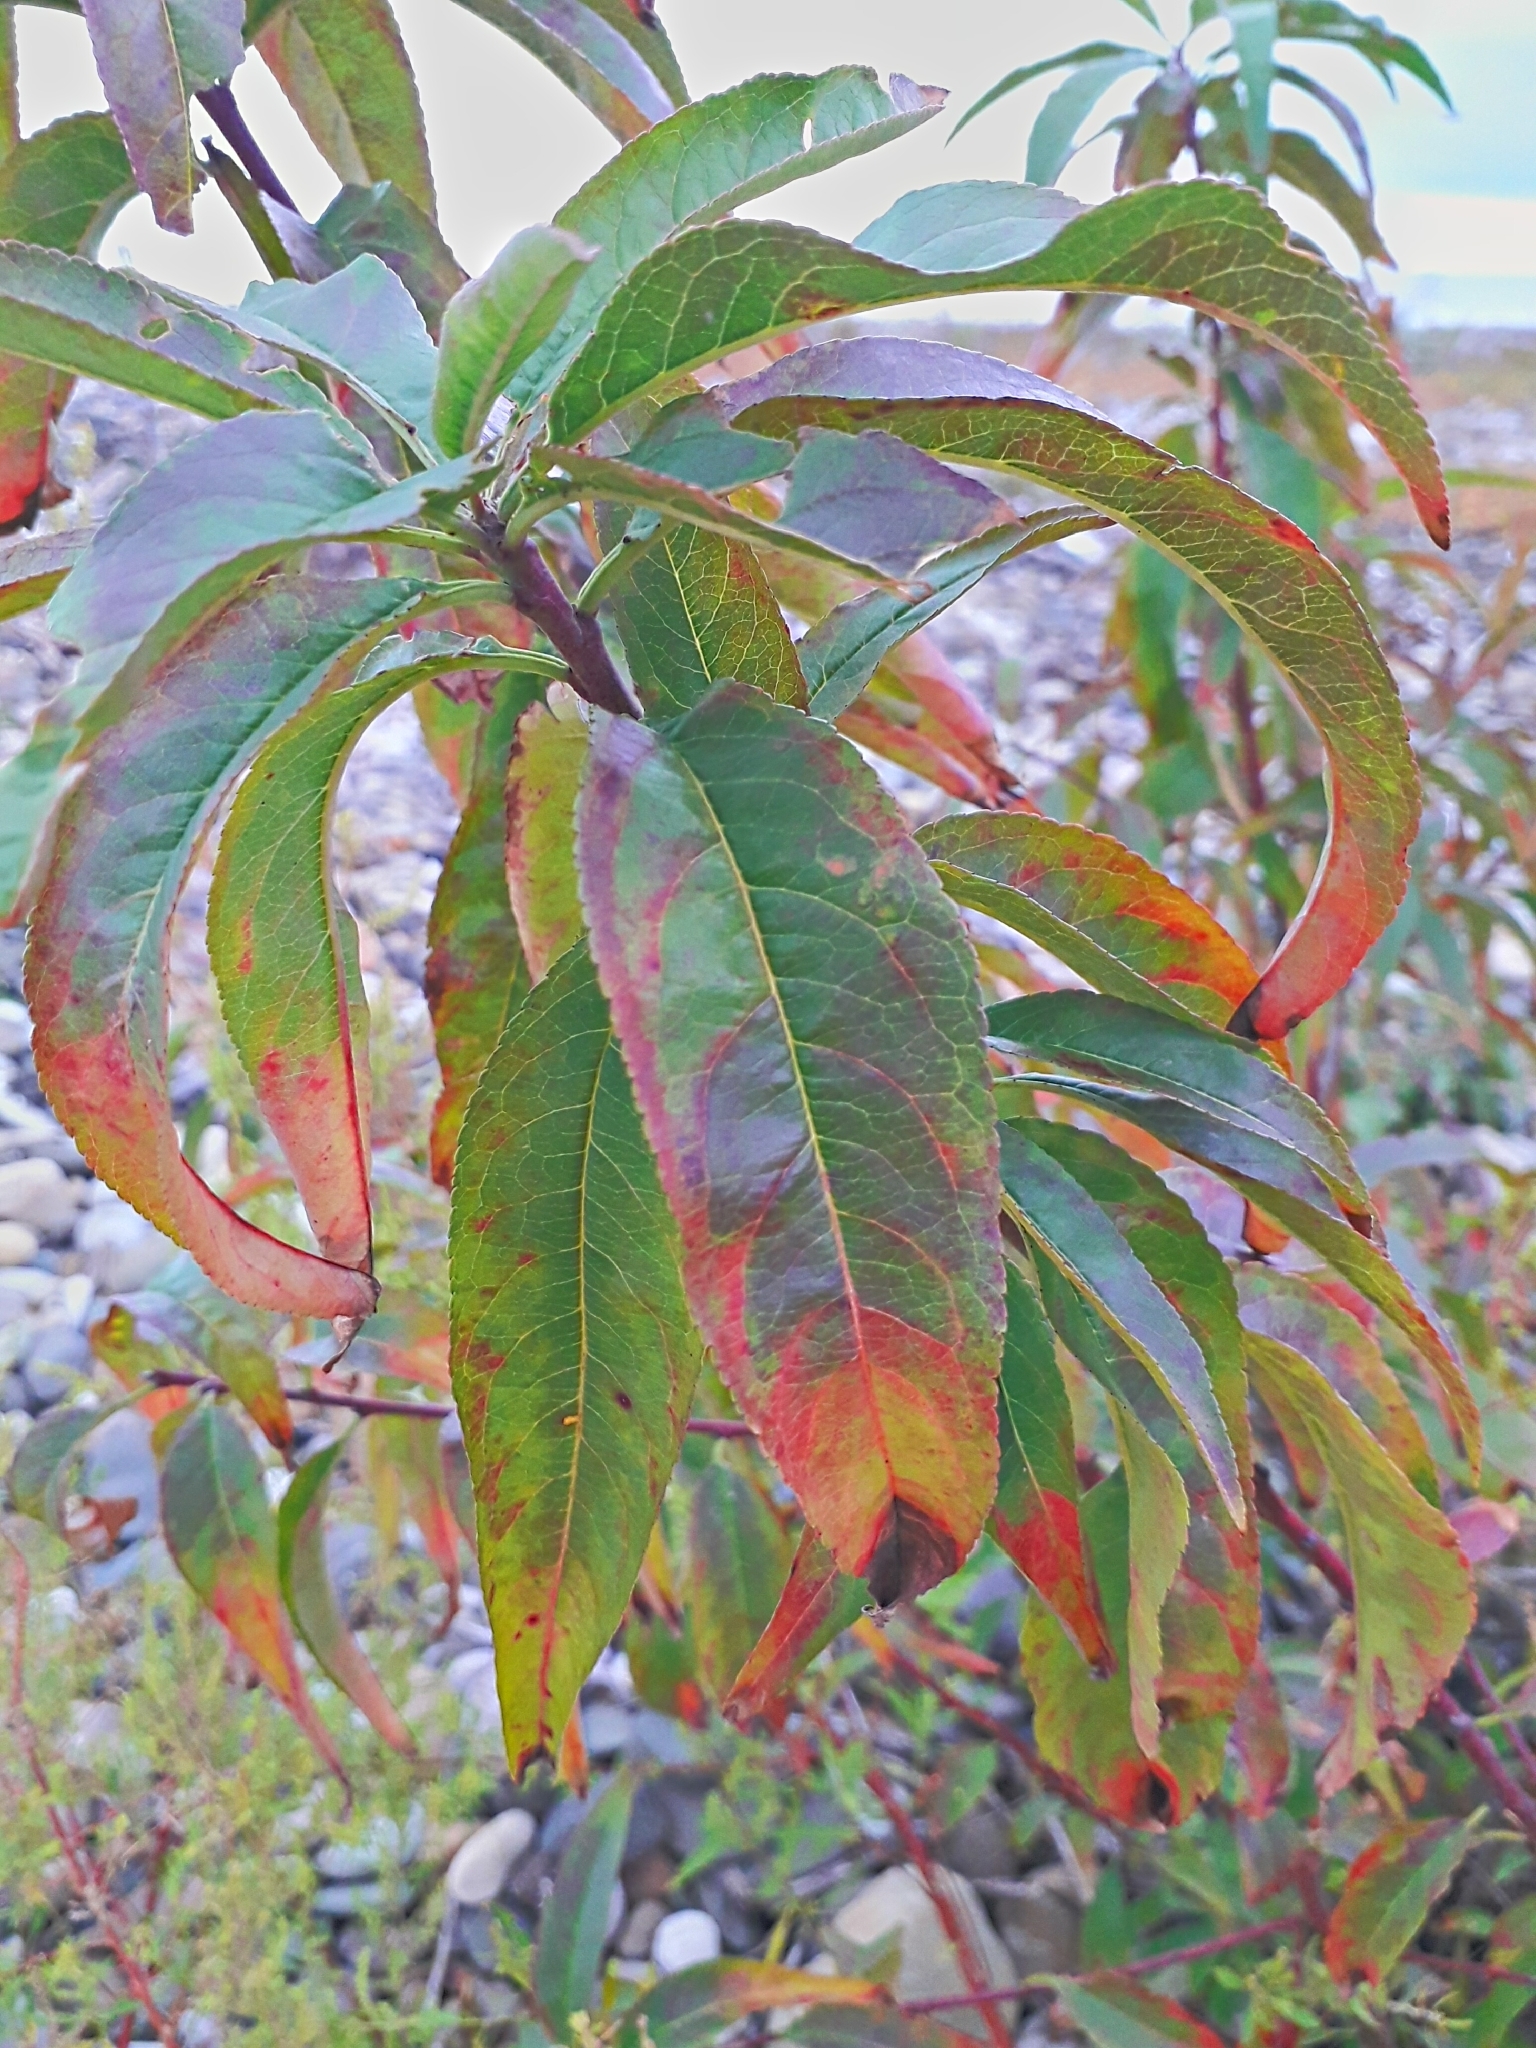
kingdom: Plantae
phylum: Tracheophyta
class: Magnoliopsida
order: Rosales
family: Rosaceae
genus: Prunus
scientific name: Prunus persica
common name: Peach
